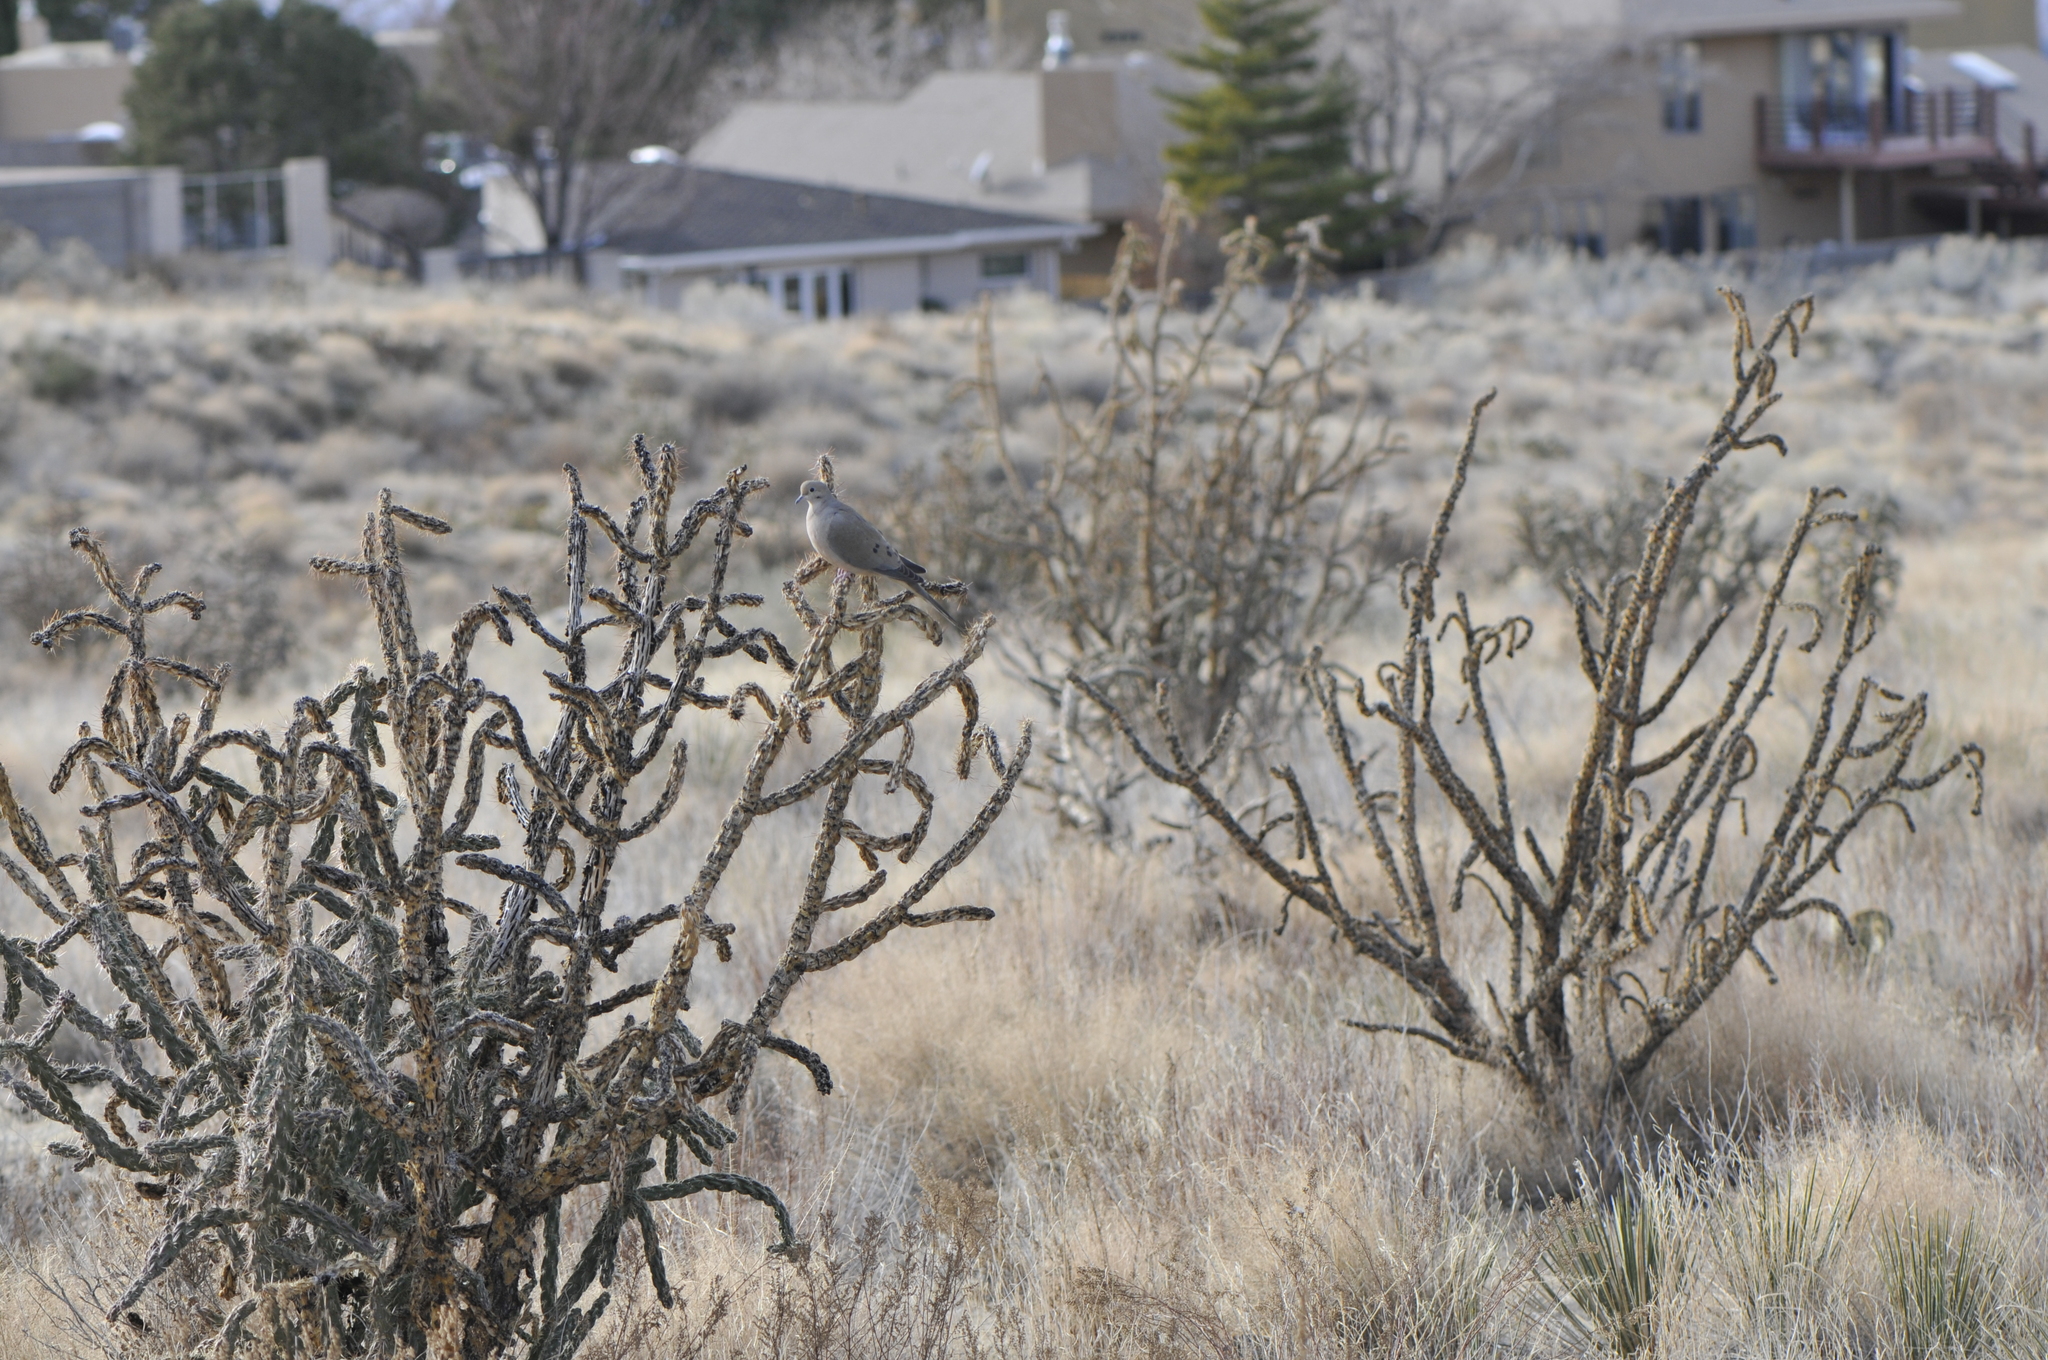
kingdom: Plantae
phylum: Tracheophyta
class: Magnoliopsida
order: Caryophyllales
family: Cactaceae
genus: Cylindropuntia
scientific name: Cylindropuntia imbricata
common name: Candelabrum cactus
